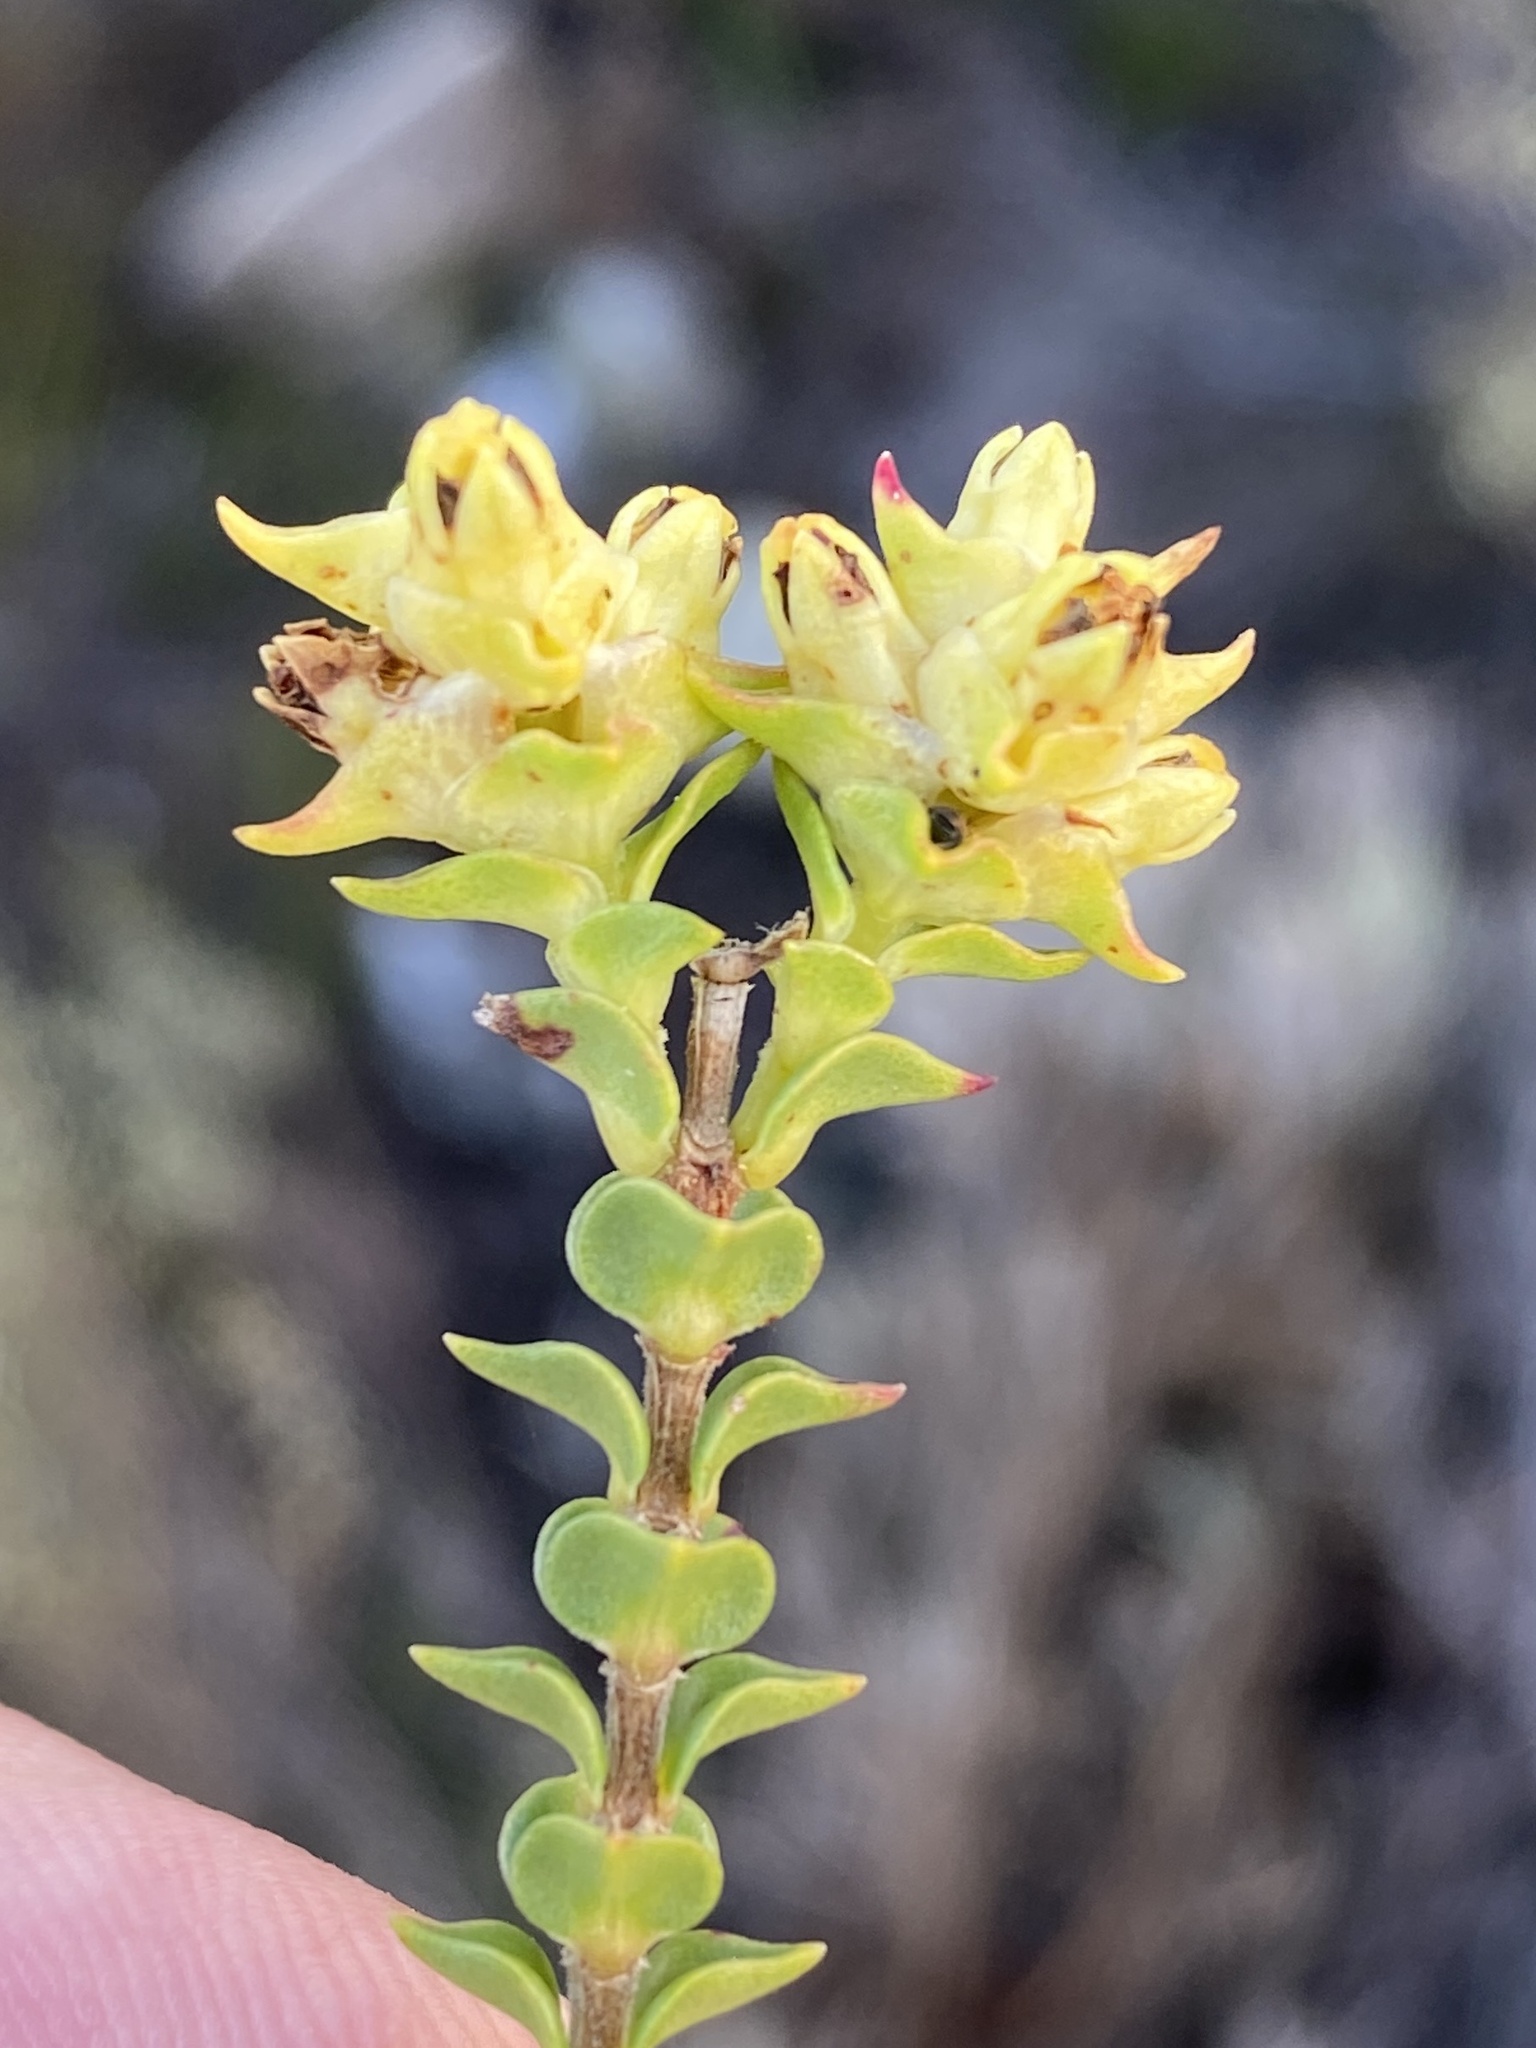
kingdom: Plantae
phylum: Tracheophyta
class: Magnoliopsida
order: Myrtales
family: Penaeaceae
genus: Penaea
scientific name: Penaea mucronata
